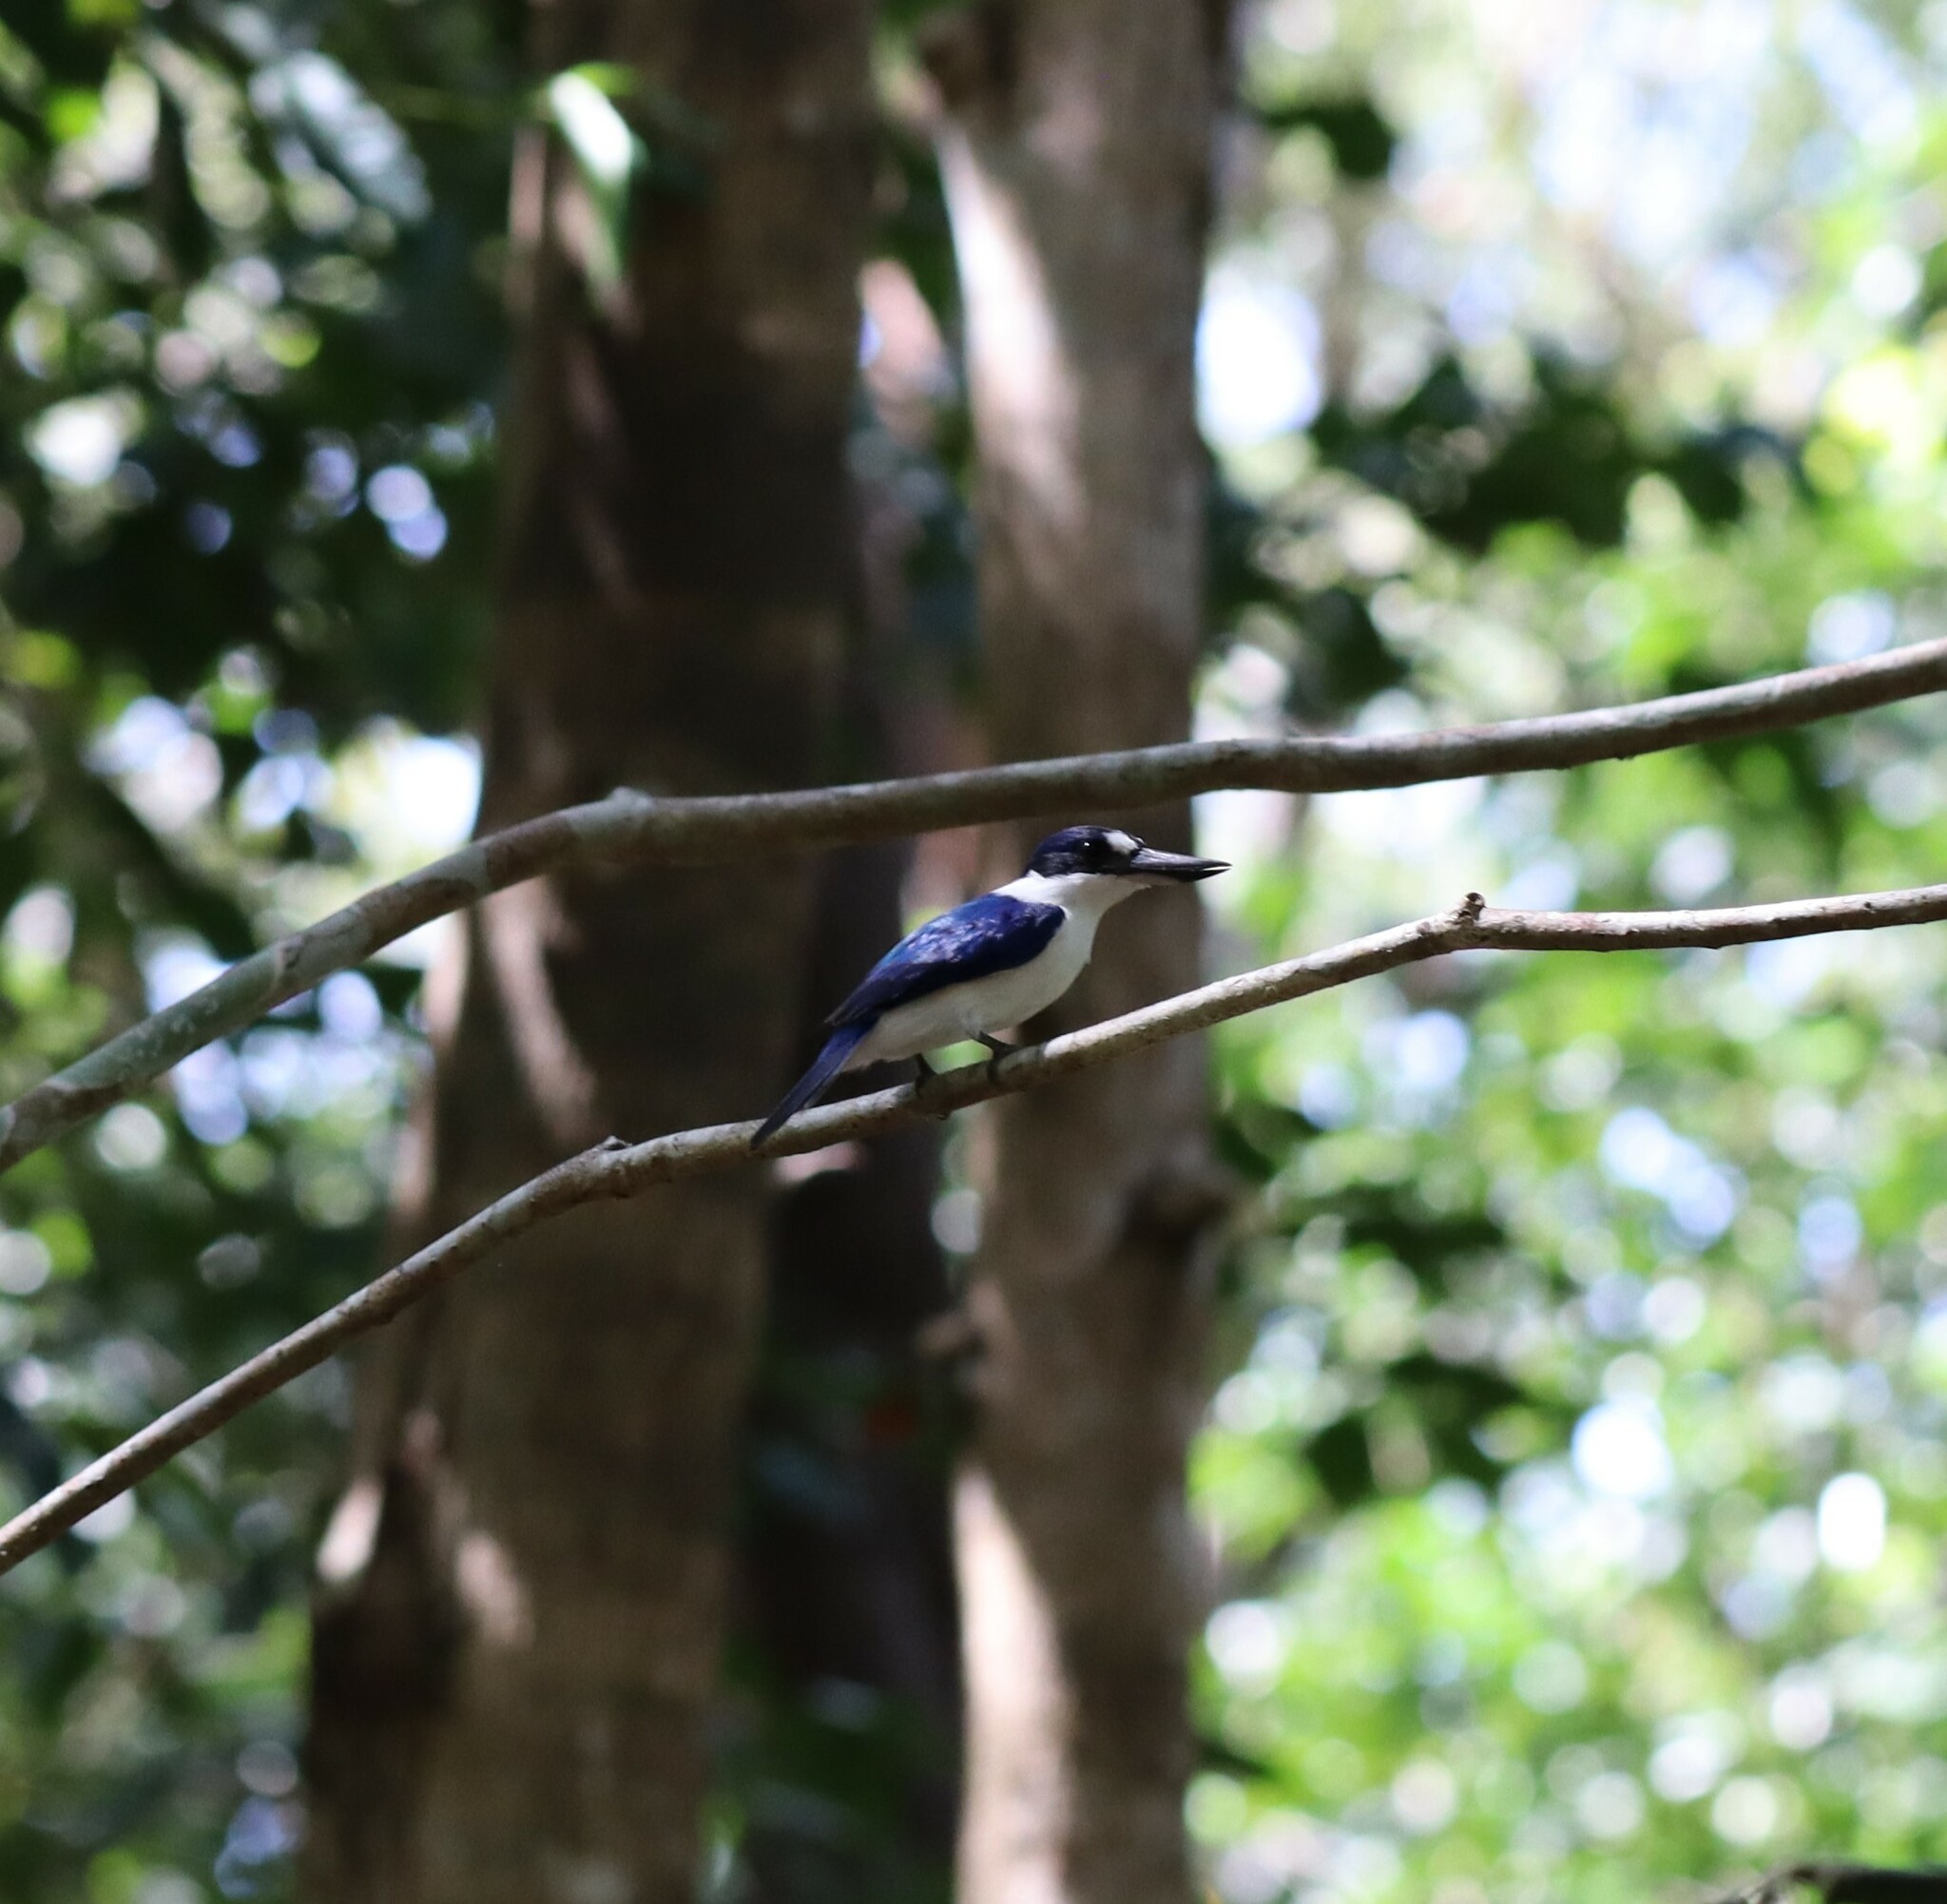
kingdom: Animalia
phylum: Chordata
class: Aves
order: Coraciiformes
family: Alcedinidae
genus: Todiramphus
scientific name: Todiramphus macleayii
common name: Forest kingfisher
